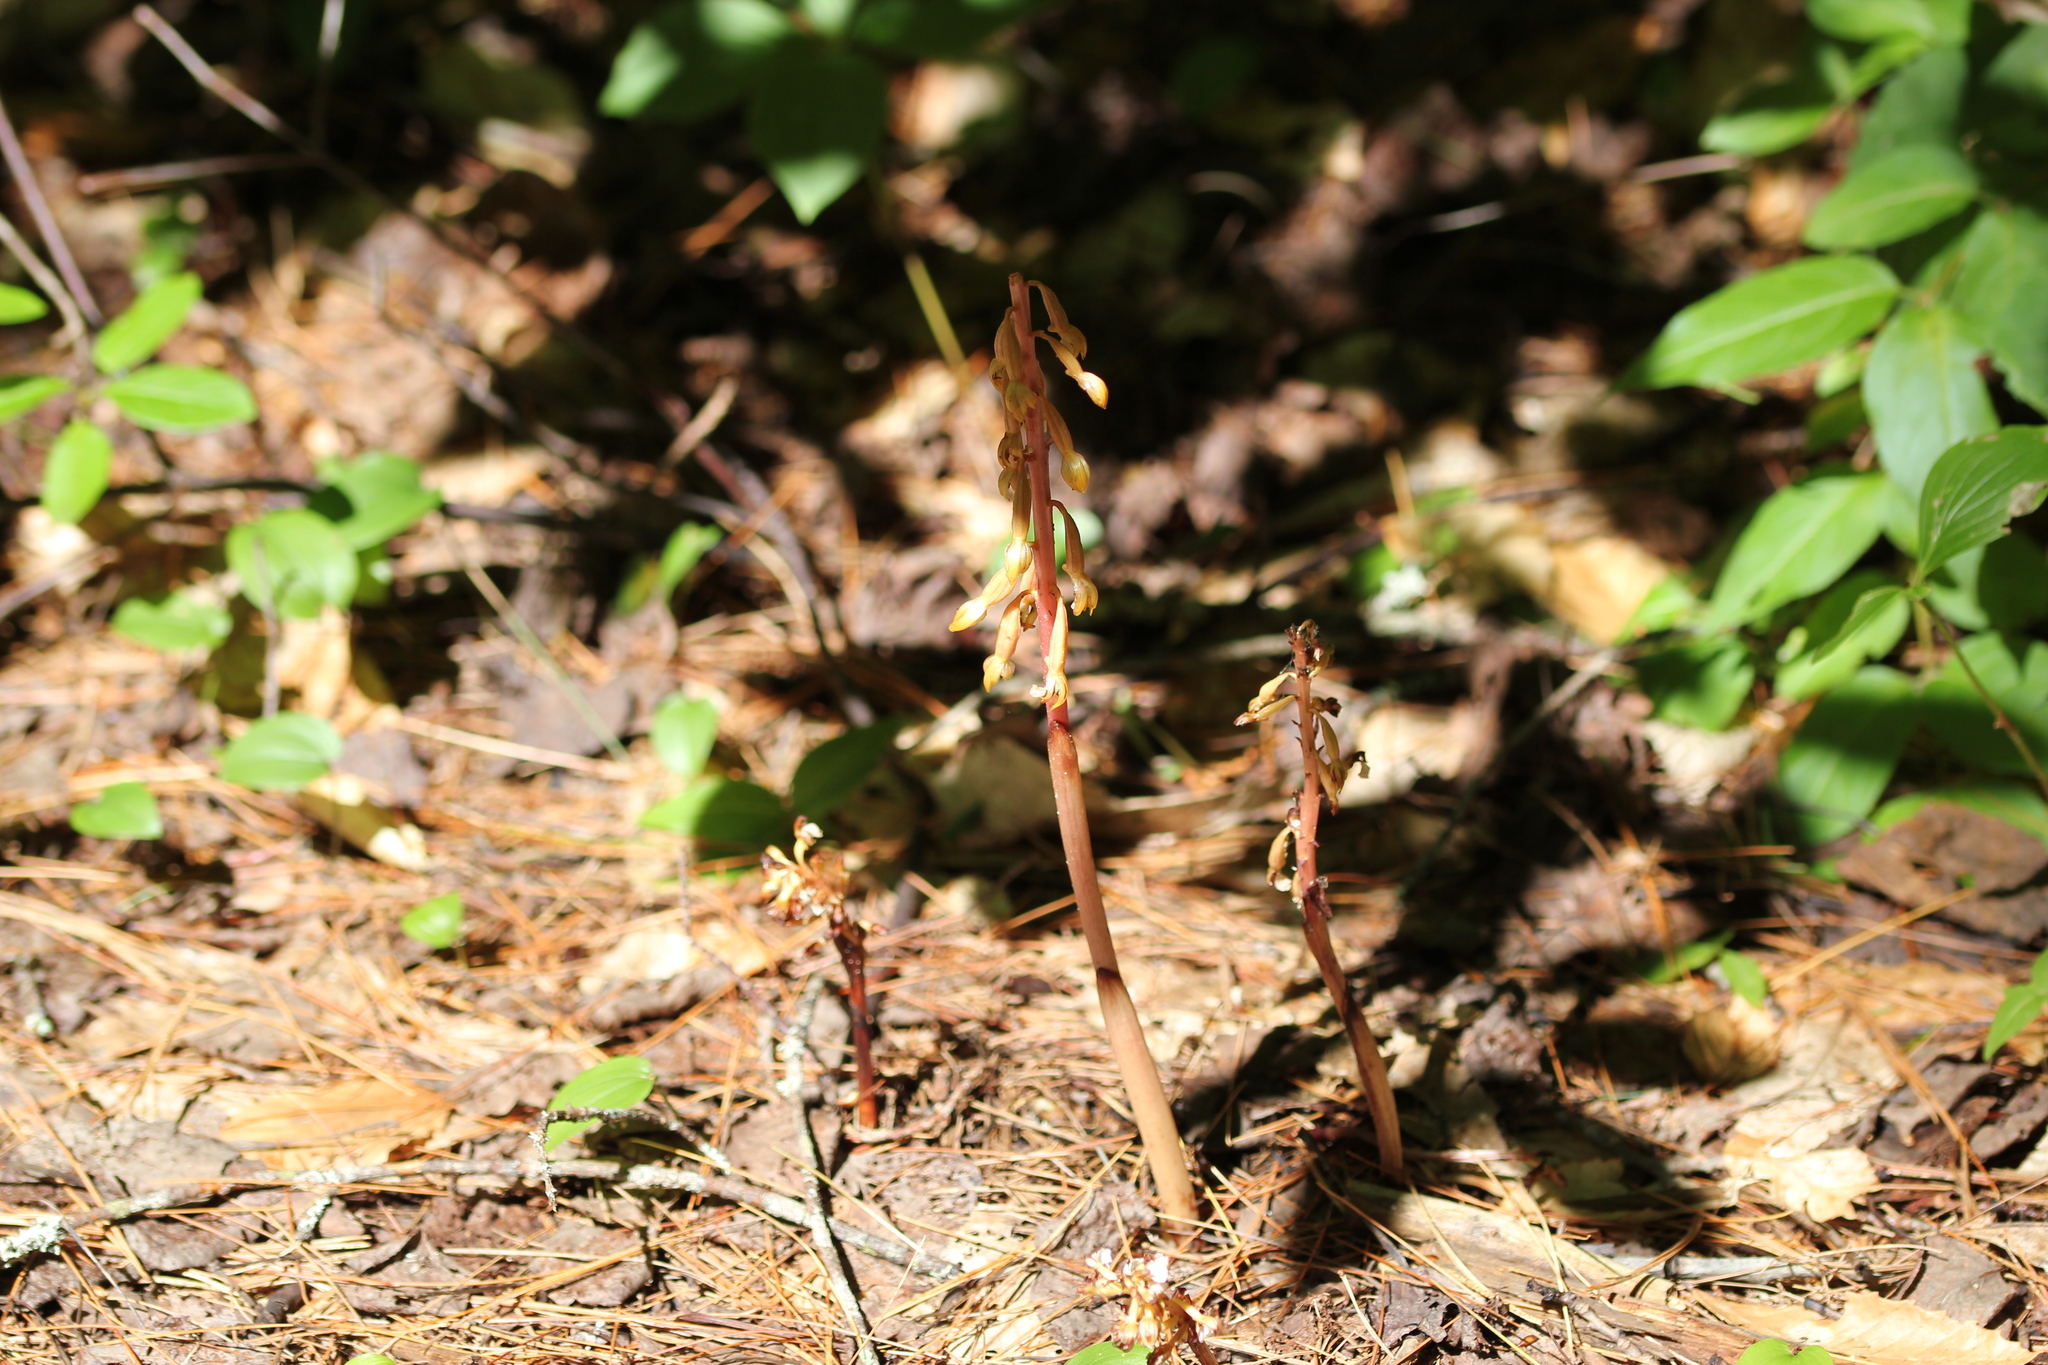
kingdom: Plantae
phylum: Tracheophyta
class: Liliopsida
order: Asparagales
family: Orchidaceae
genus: Corallorhiza
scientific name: Corallorhiza maculata
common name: Spotted coralroot
